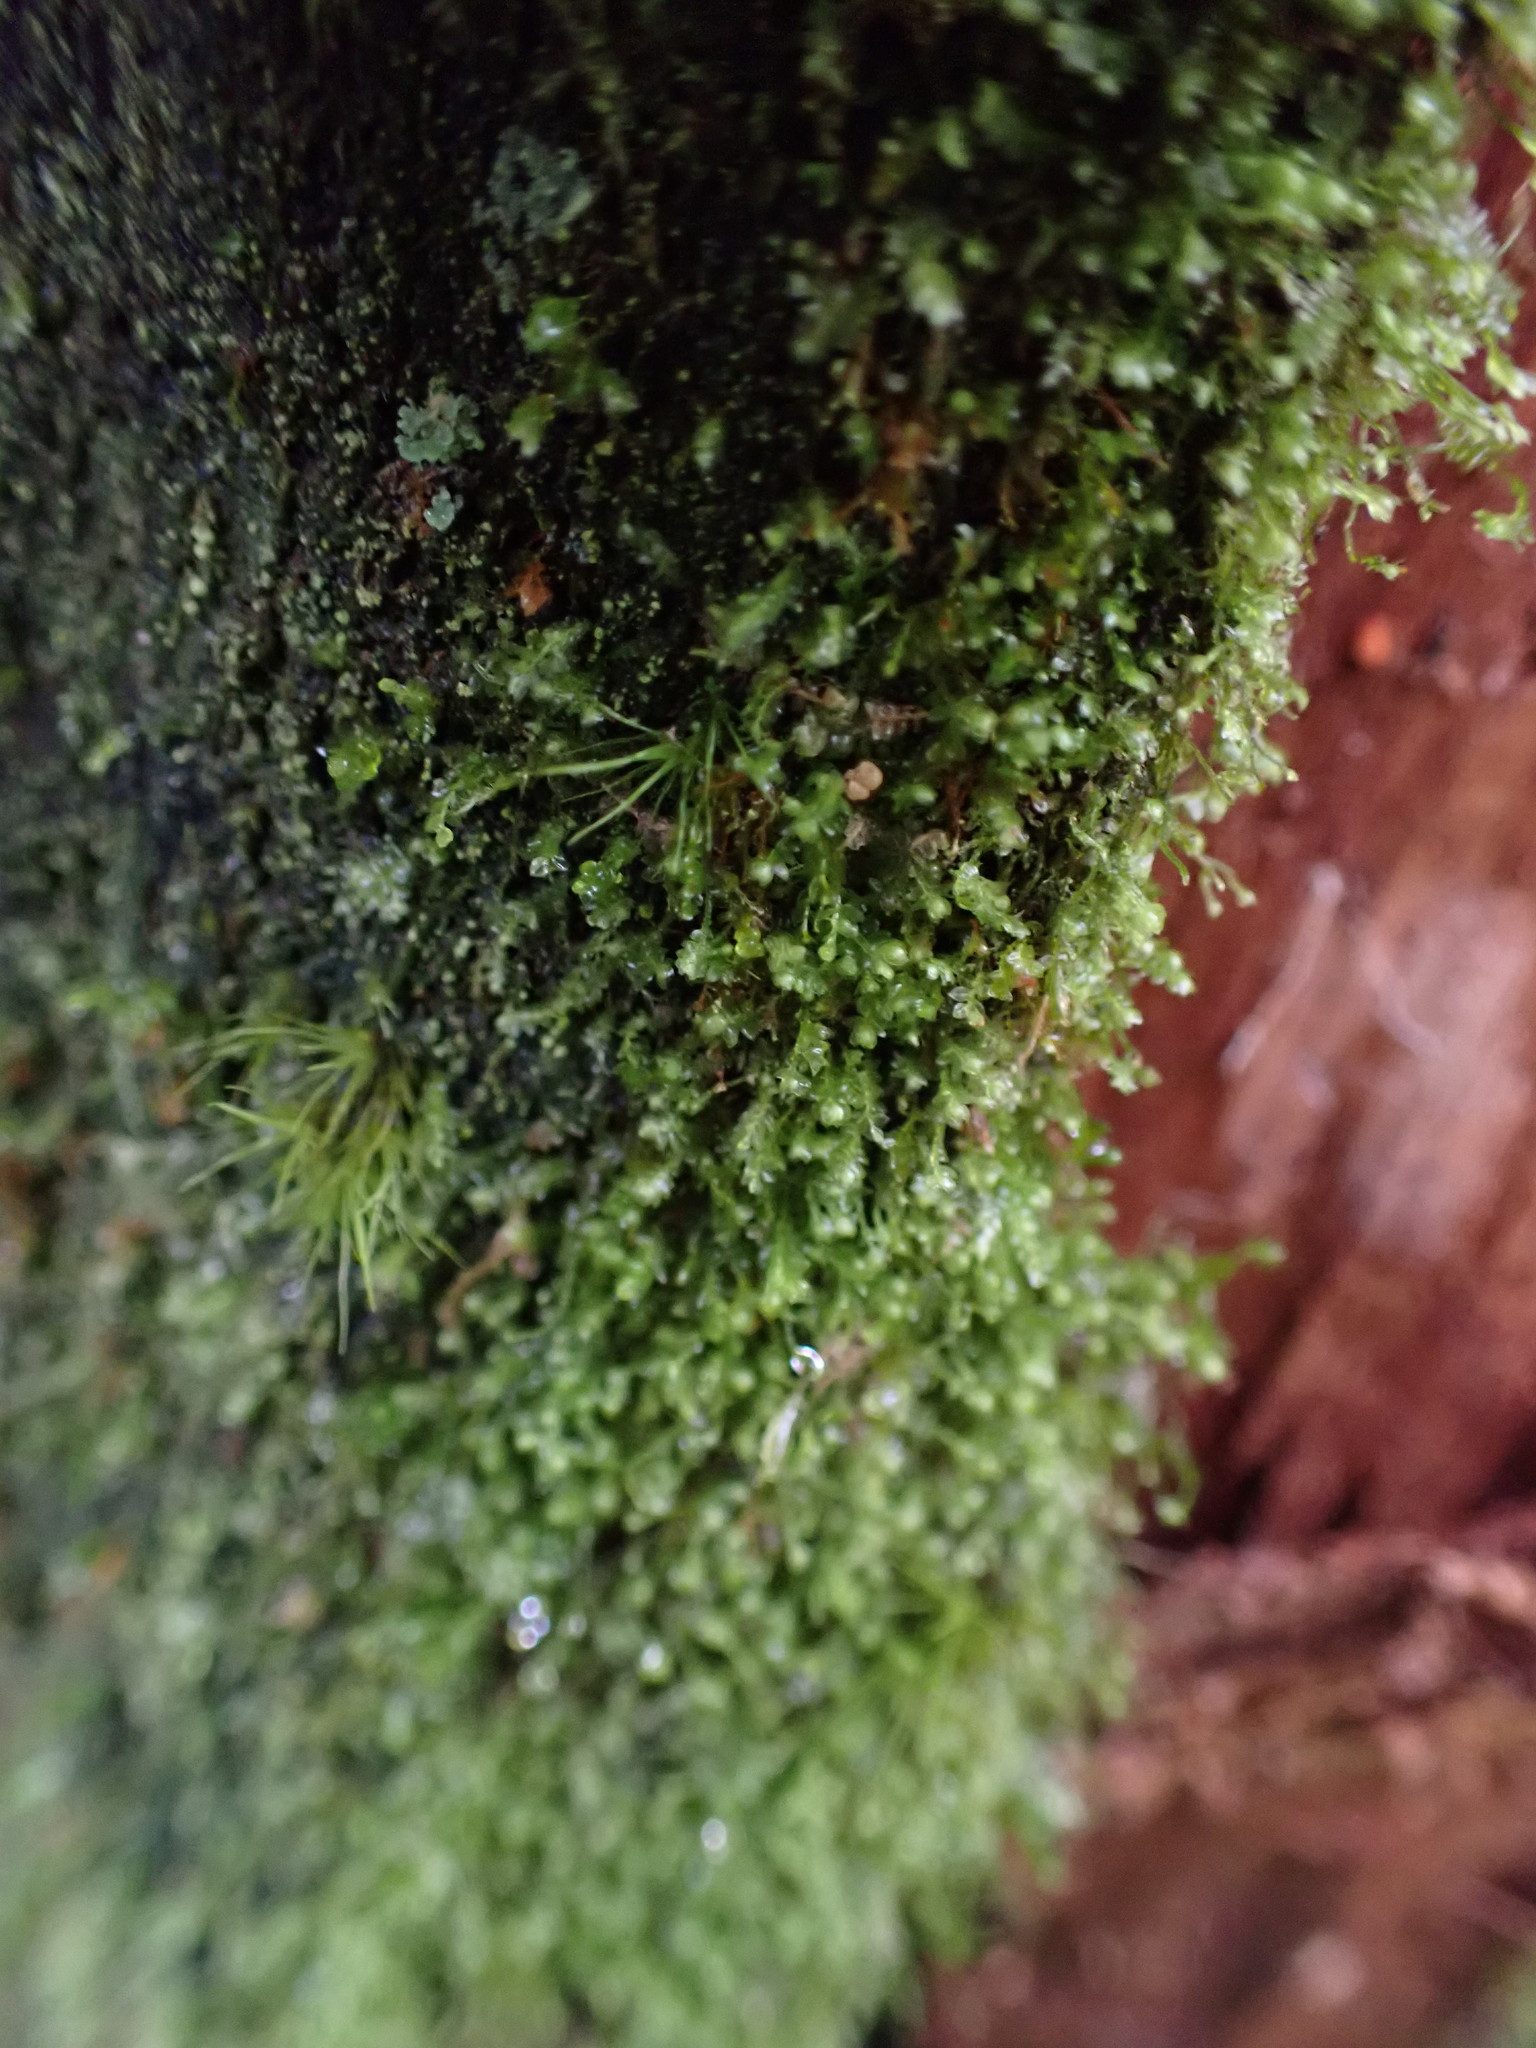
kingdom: Plantae
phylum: Marchantiophyta
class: Jungermanniopsida
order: Jungermanniales
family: Lepidoziaceae
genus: Bazzania
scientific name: Bazzania denudata
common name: Naked whipwort
